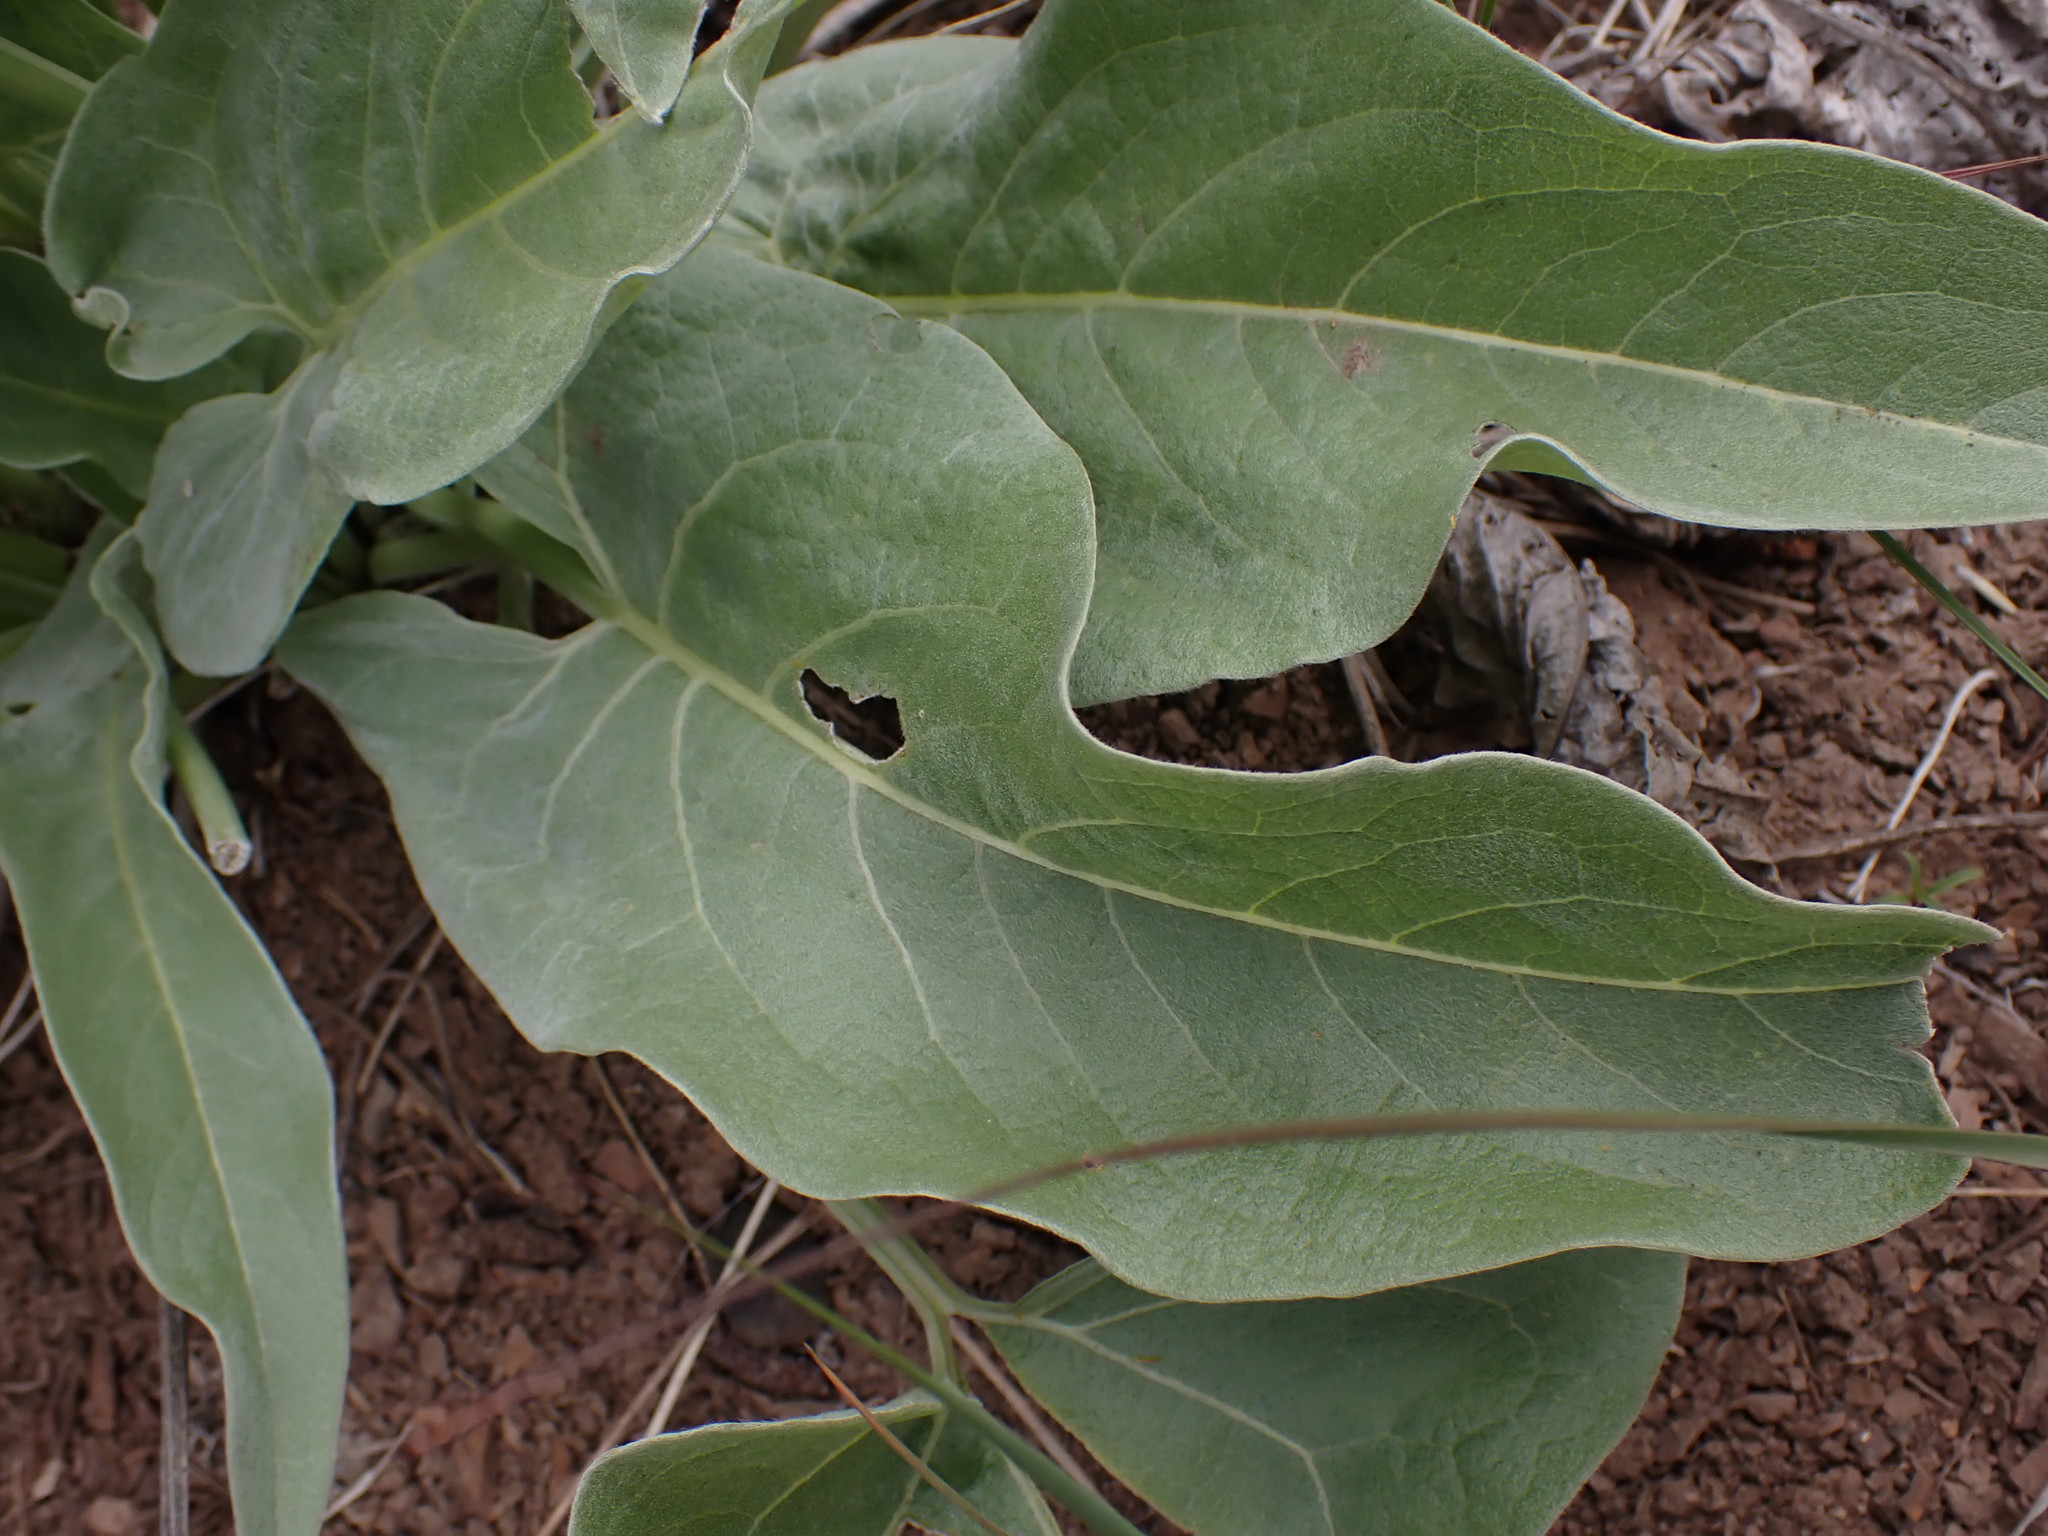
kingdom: Plantae
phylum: Tracheophyta
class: Magnoliopsida
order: Asterales
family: Asteraceae
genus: Wyethia
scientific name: Wyethia sagittata
